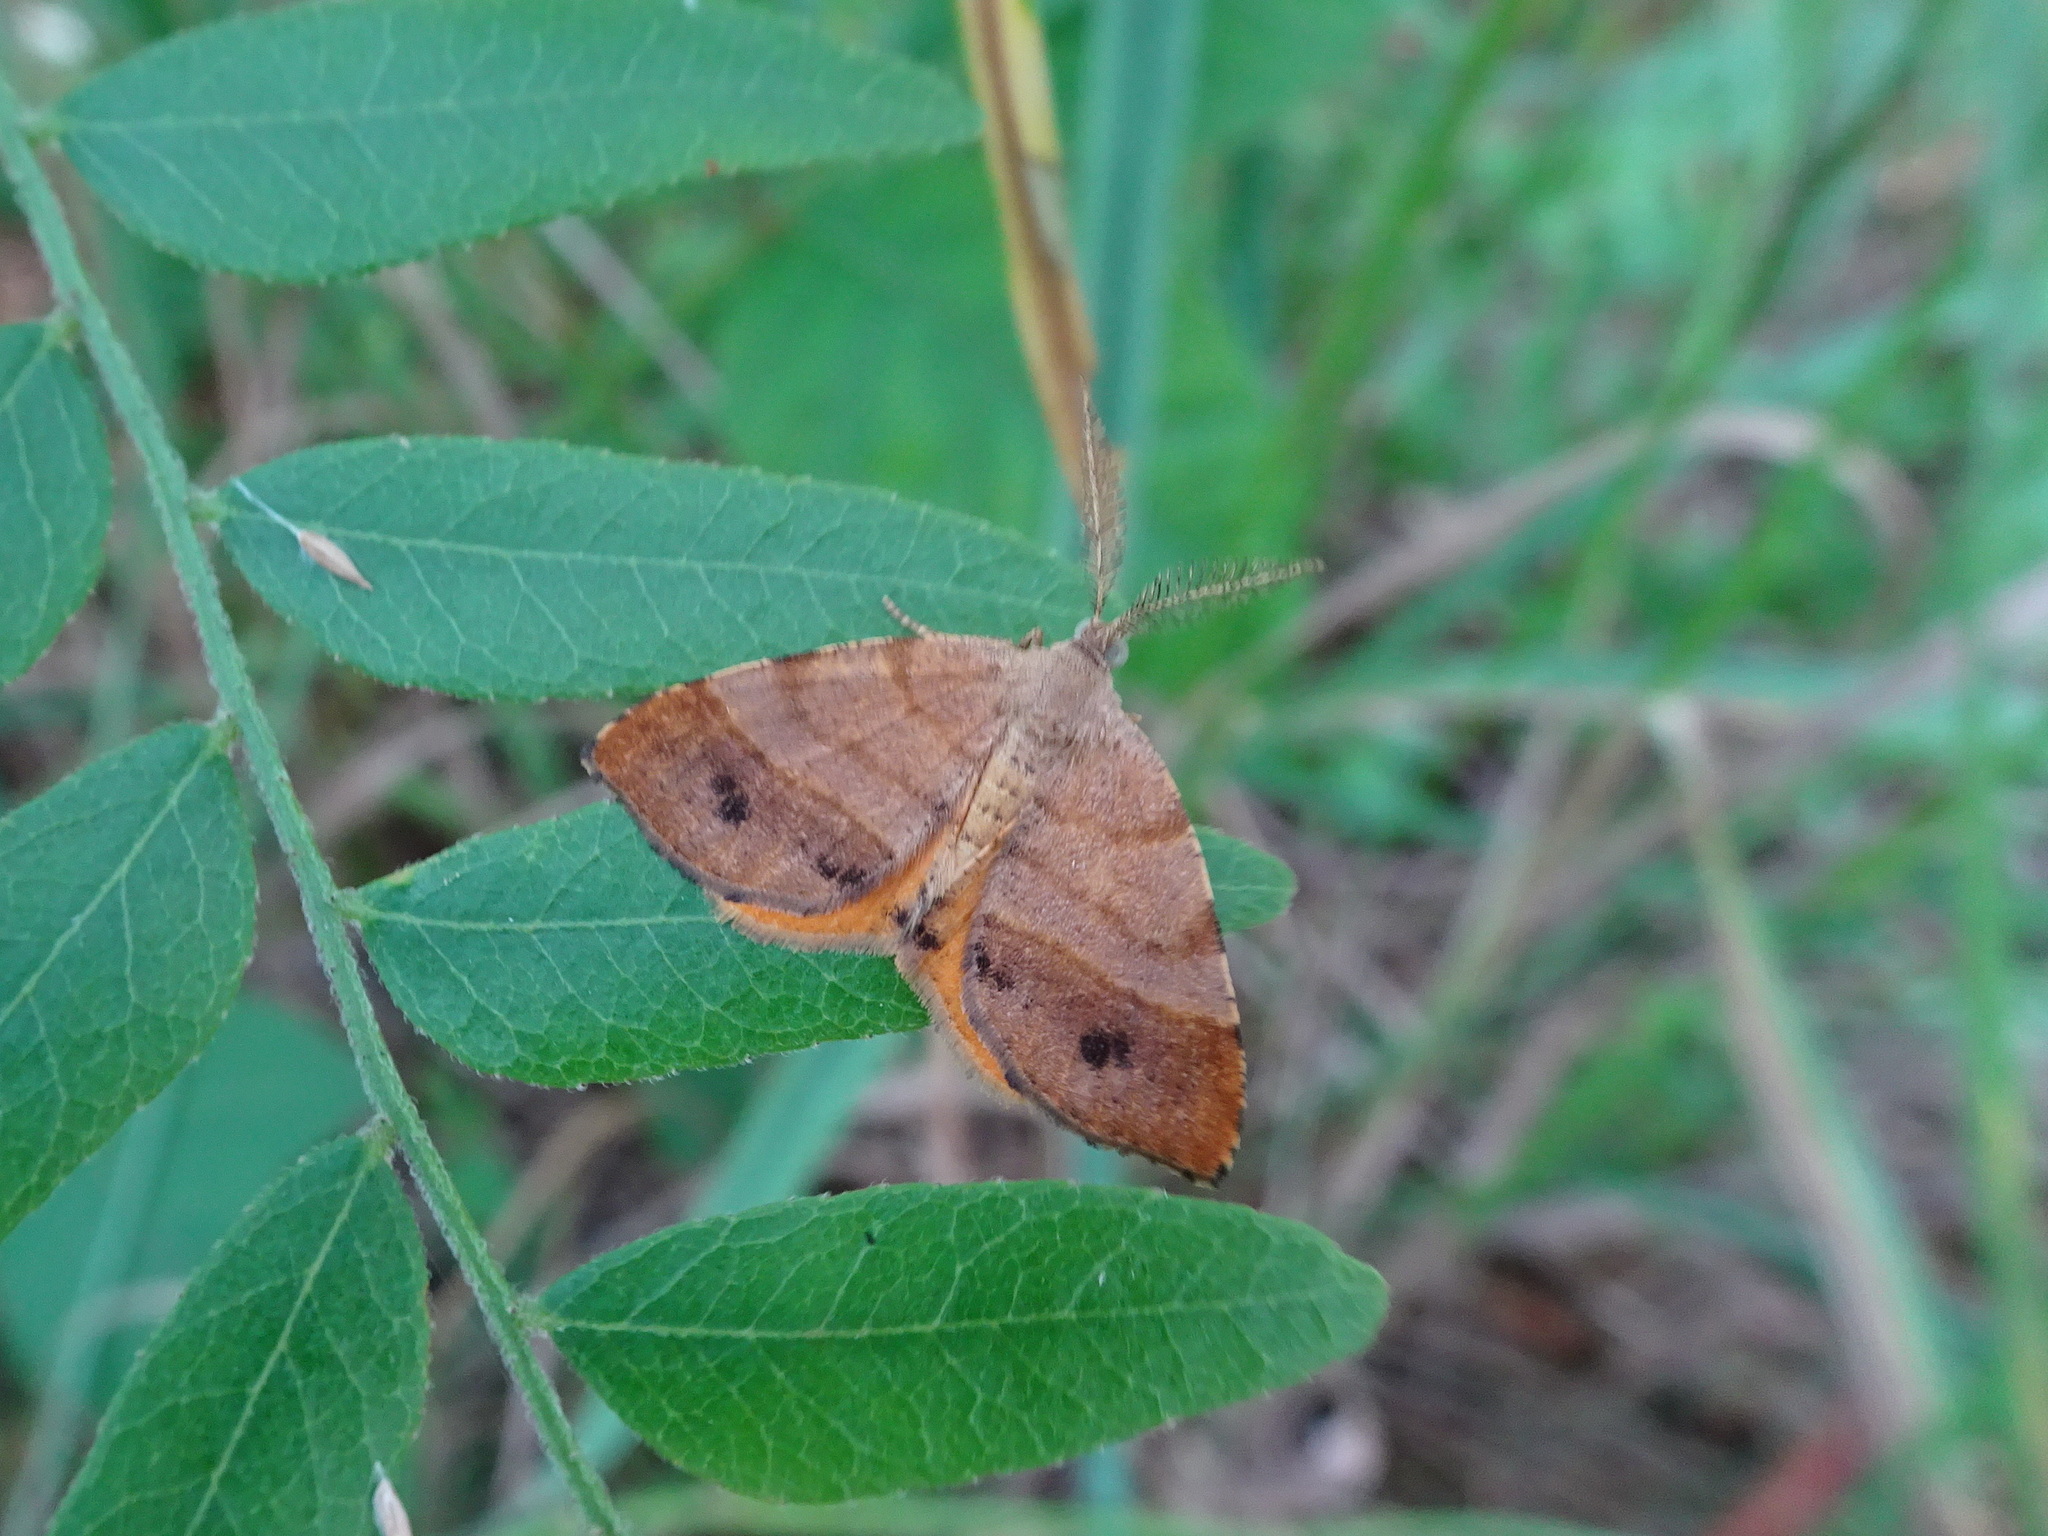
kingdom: Animalia
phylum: Arthropoda
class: Insecta
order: Lepidoptera
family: Geometridae
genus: Mellilla
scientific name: Mellilla xanthometata
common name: Orange wing moth
